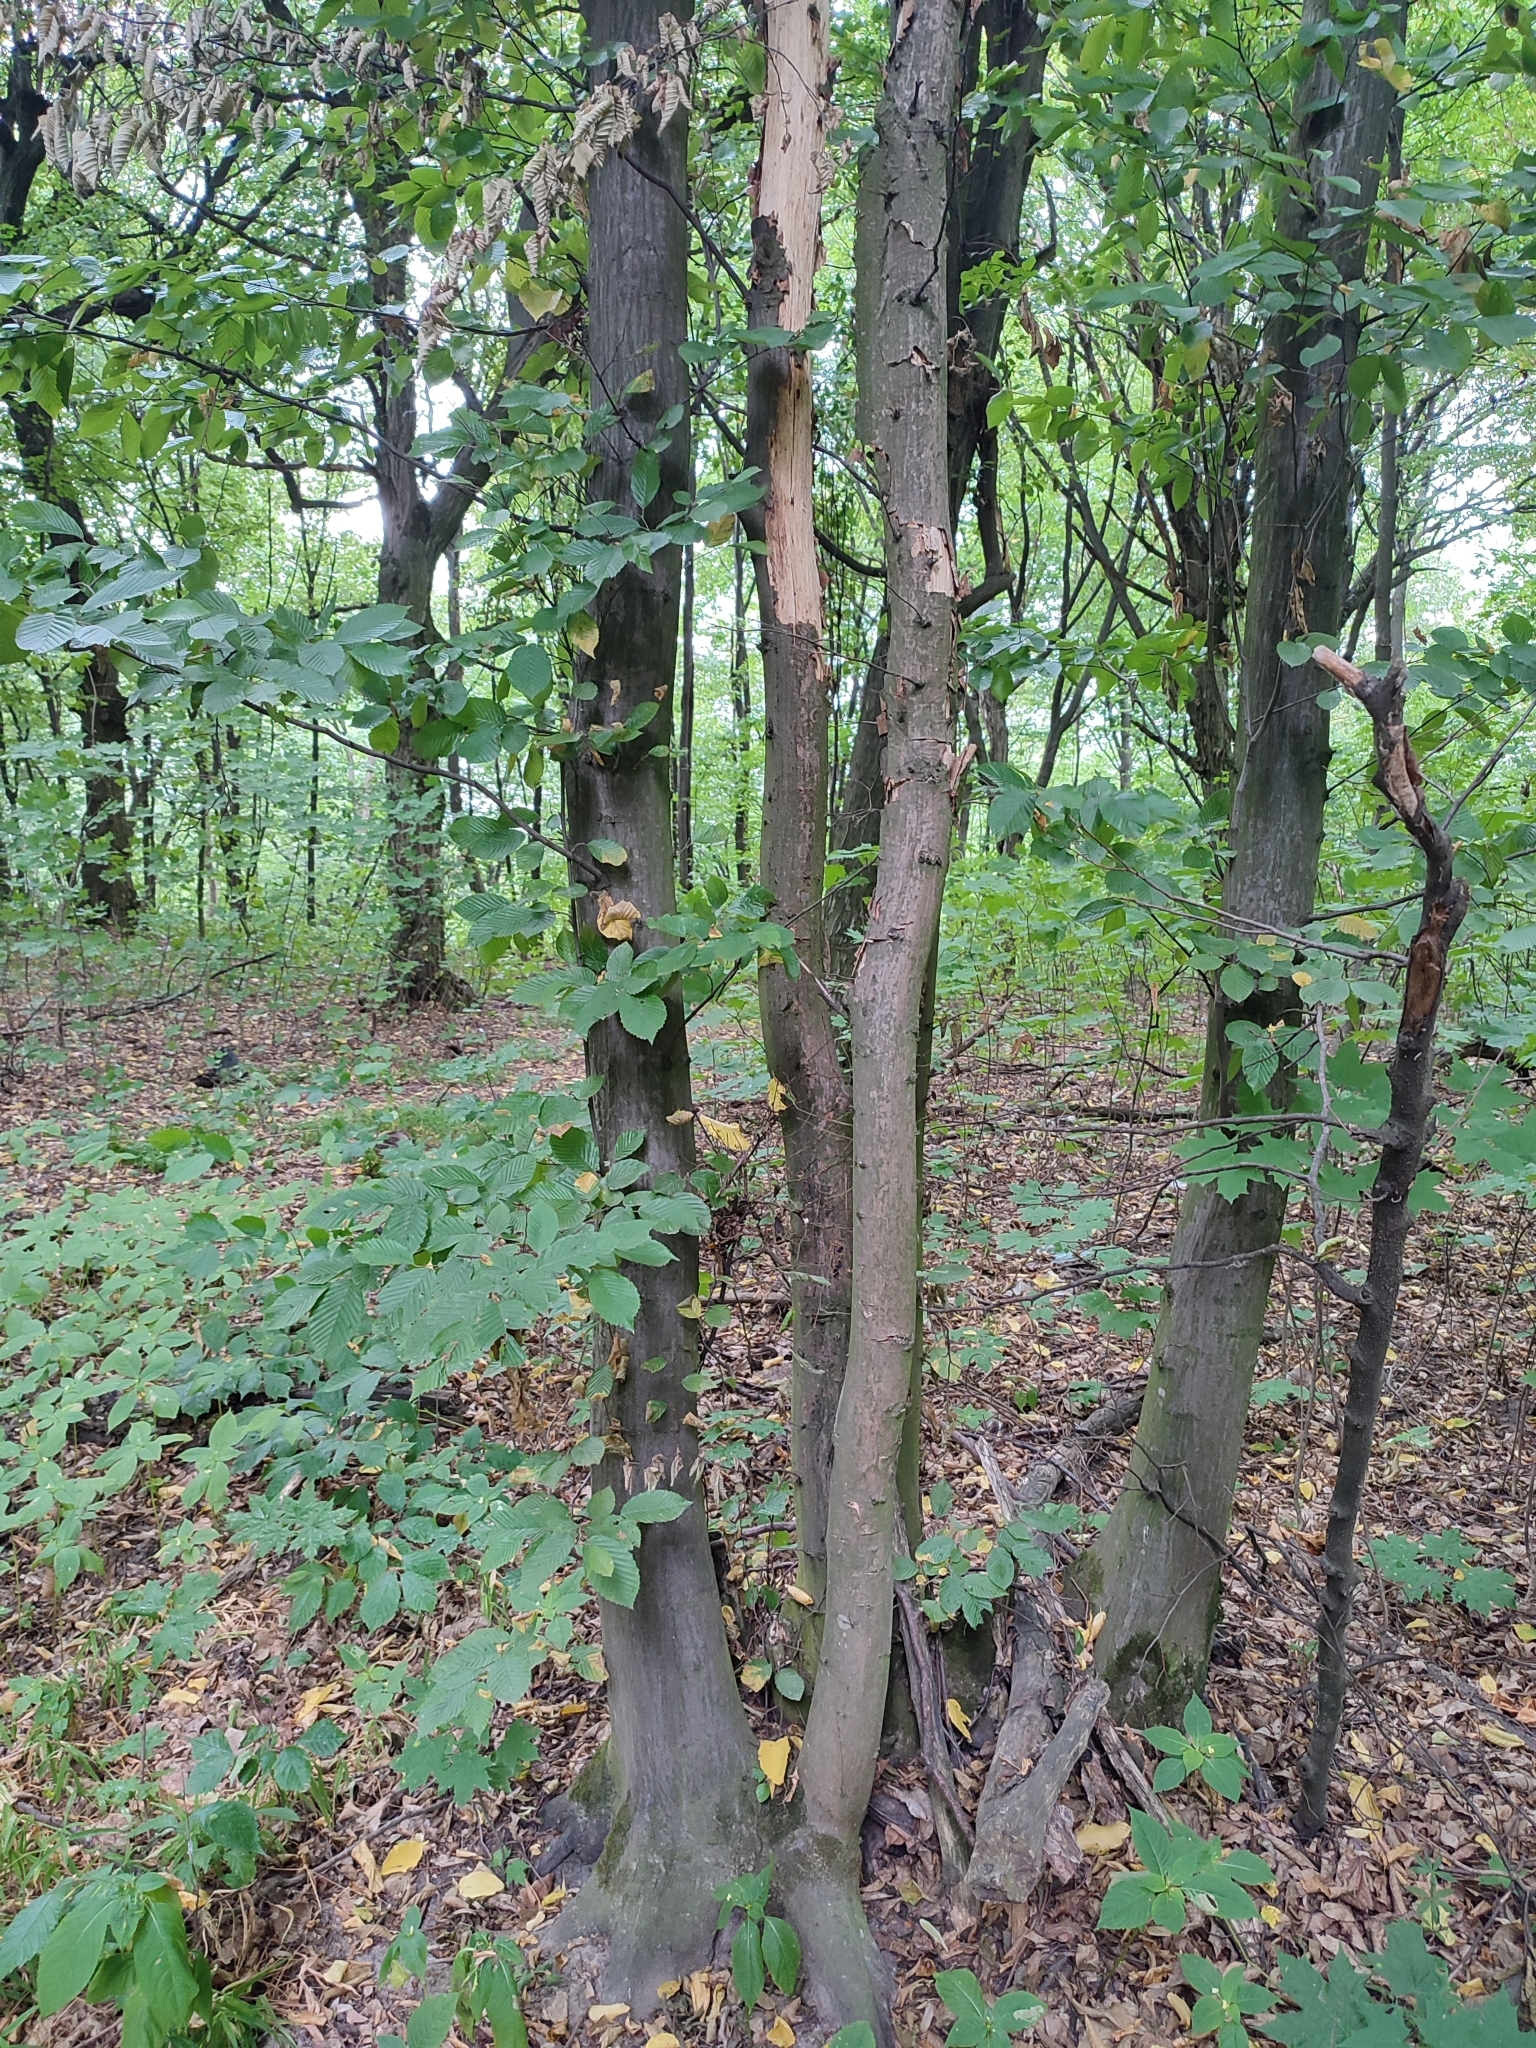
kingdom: Plantae
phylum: Tracheophyta
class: Magnoliopsida
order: Fagales
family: Betulaceae
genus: Carpinus
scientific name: Carpinus betulus
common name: Hornbeam
